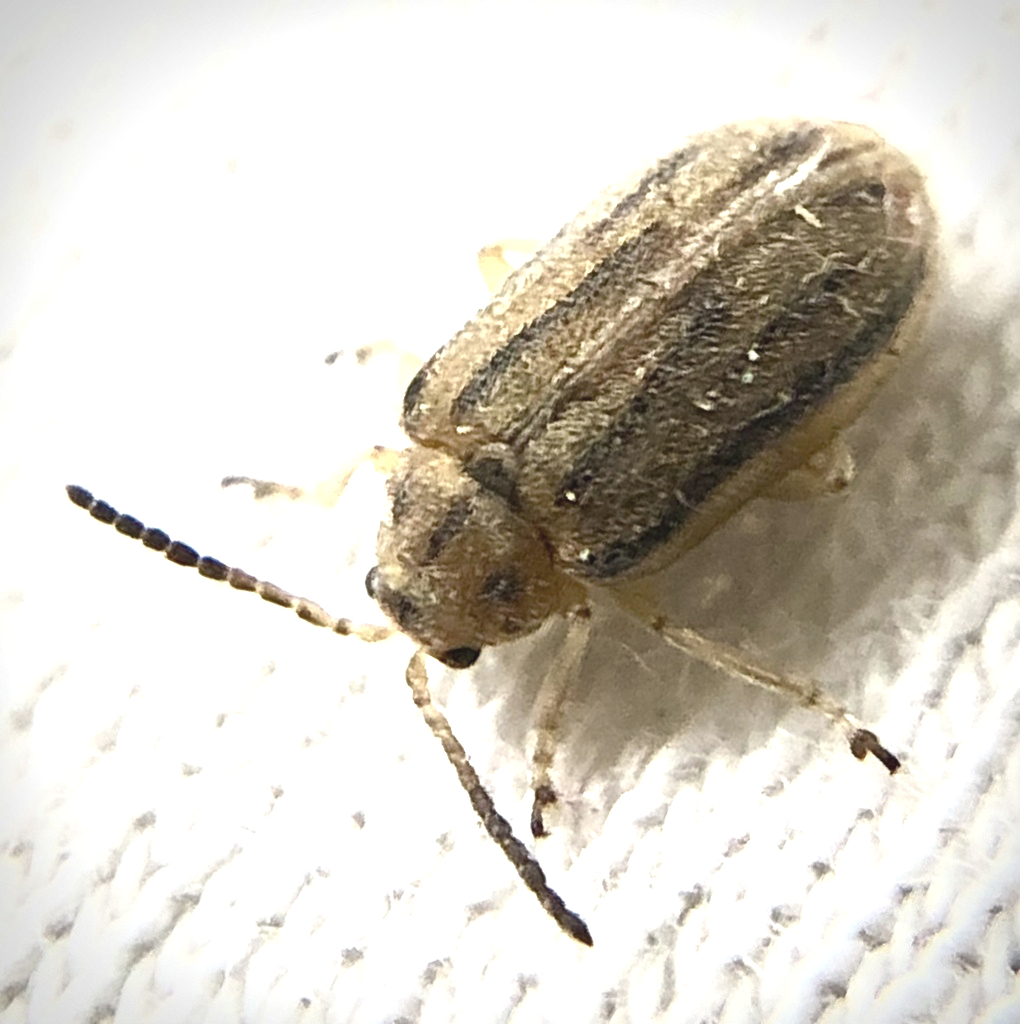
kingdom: Animalia
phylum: Arthropoda
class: Insecta
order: Coleoptera
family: Chrysomelidae
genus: Ophraella
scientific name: Ophraella communa
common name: Ragweed leaf beetle
